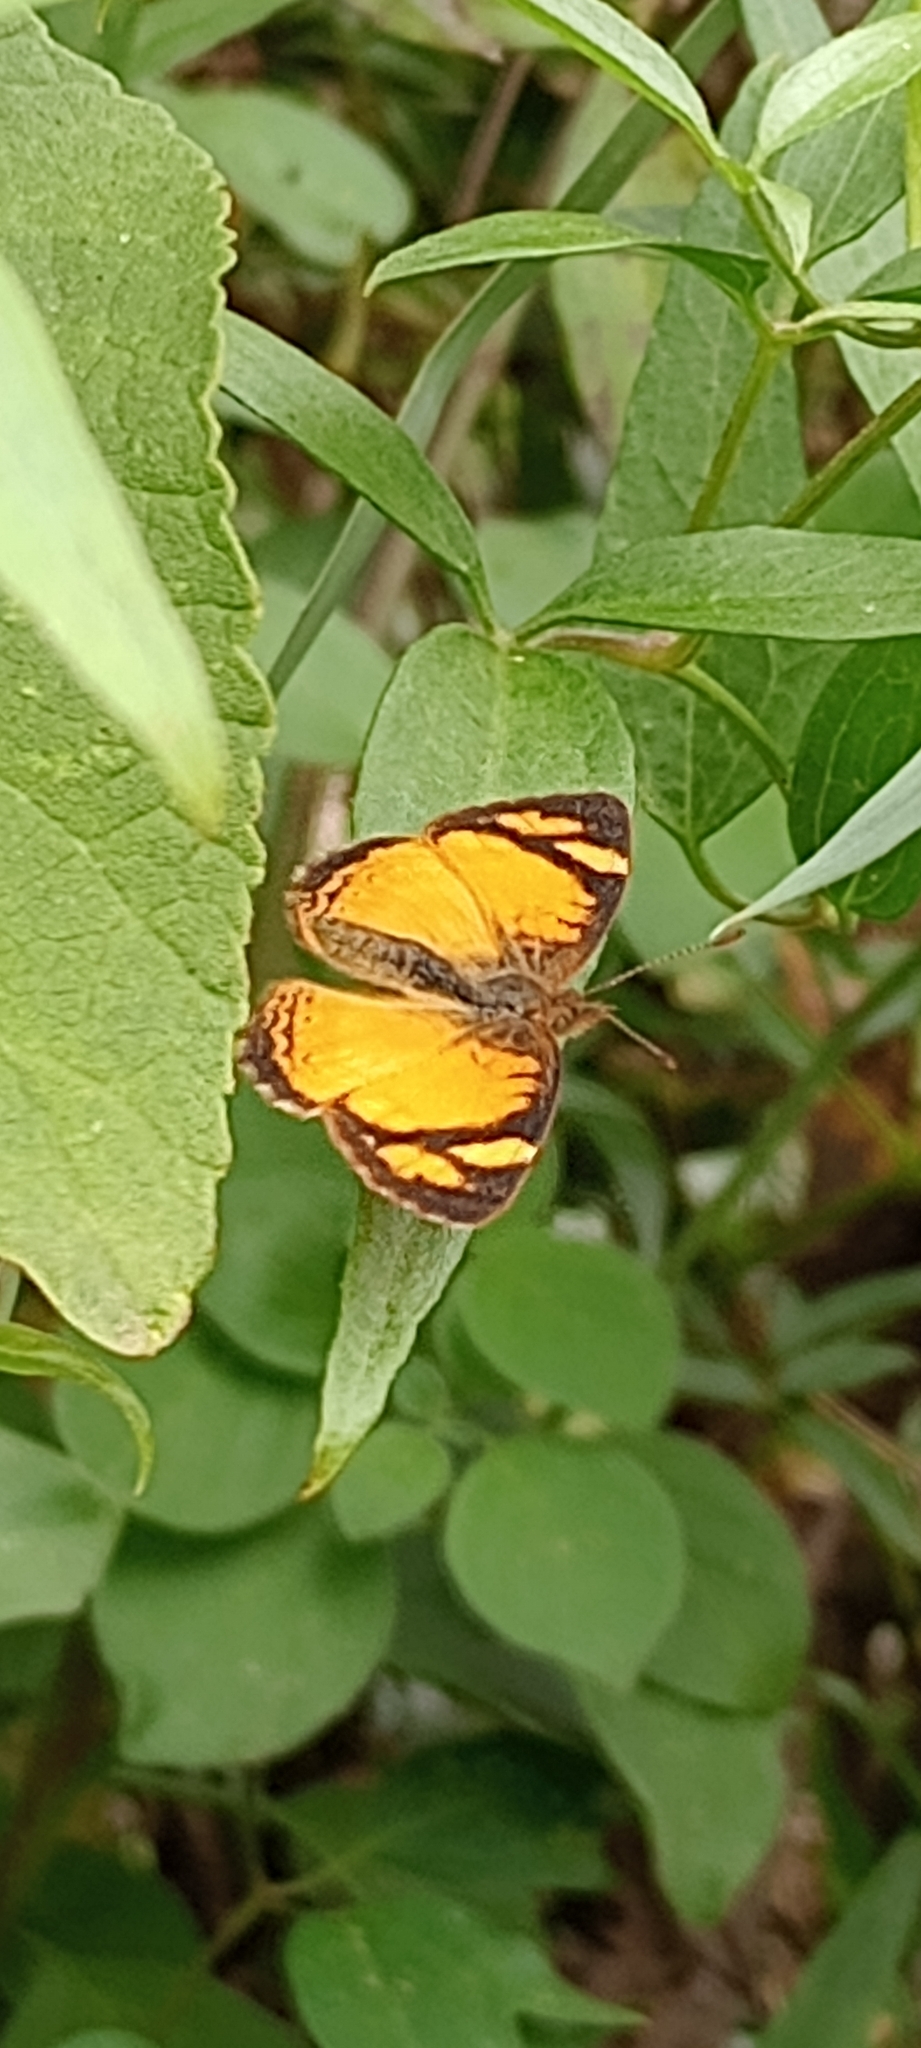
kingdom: Animalia
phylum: Arthropoda
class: Insecta
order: Lepidoptera
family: Nymphalidae
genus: Tegosa
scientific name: Tegosa claudina
